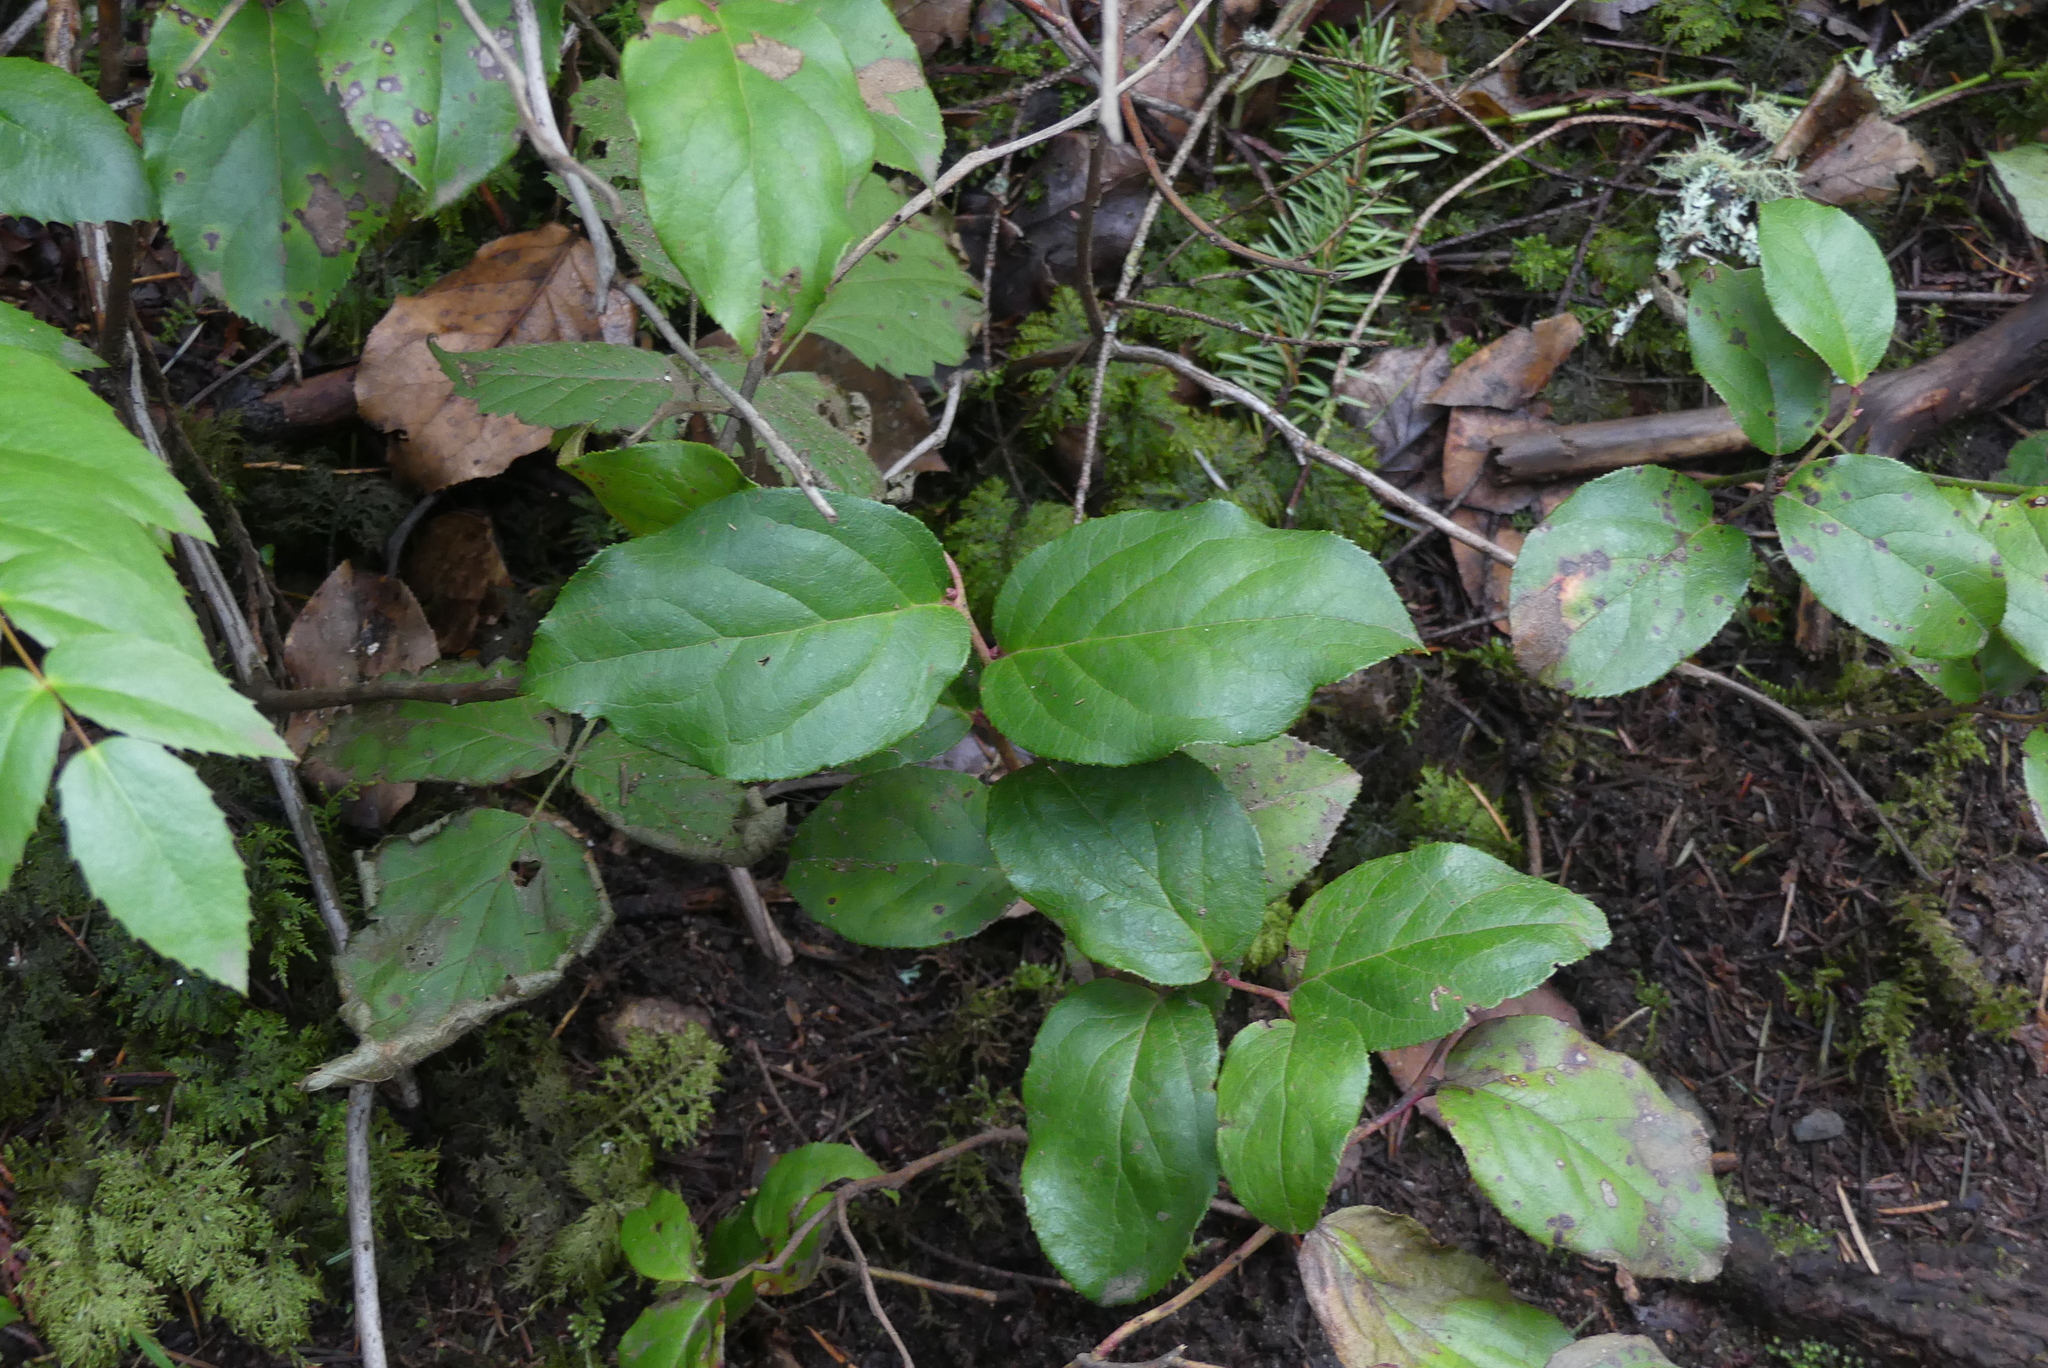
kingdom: Plantae
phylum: Tracheophyta
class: Magnoliopsida
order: Ericales
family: Ericaceae
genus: Gaultheria
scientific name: Gaultheria shallon
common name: Shallon
